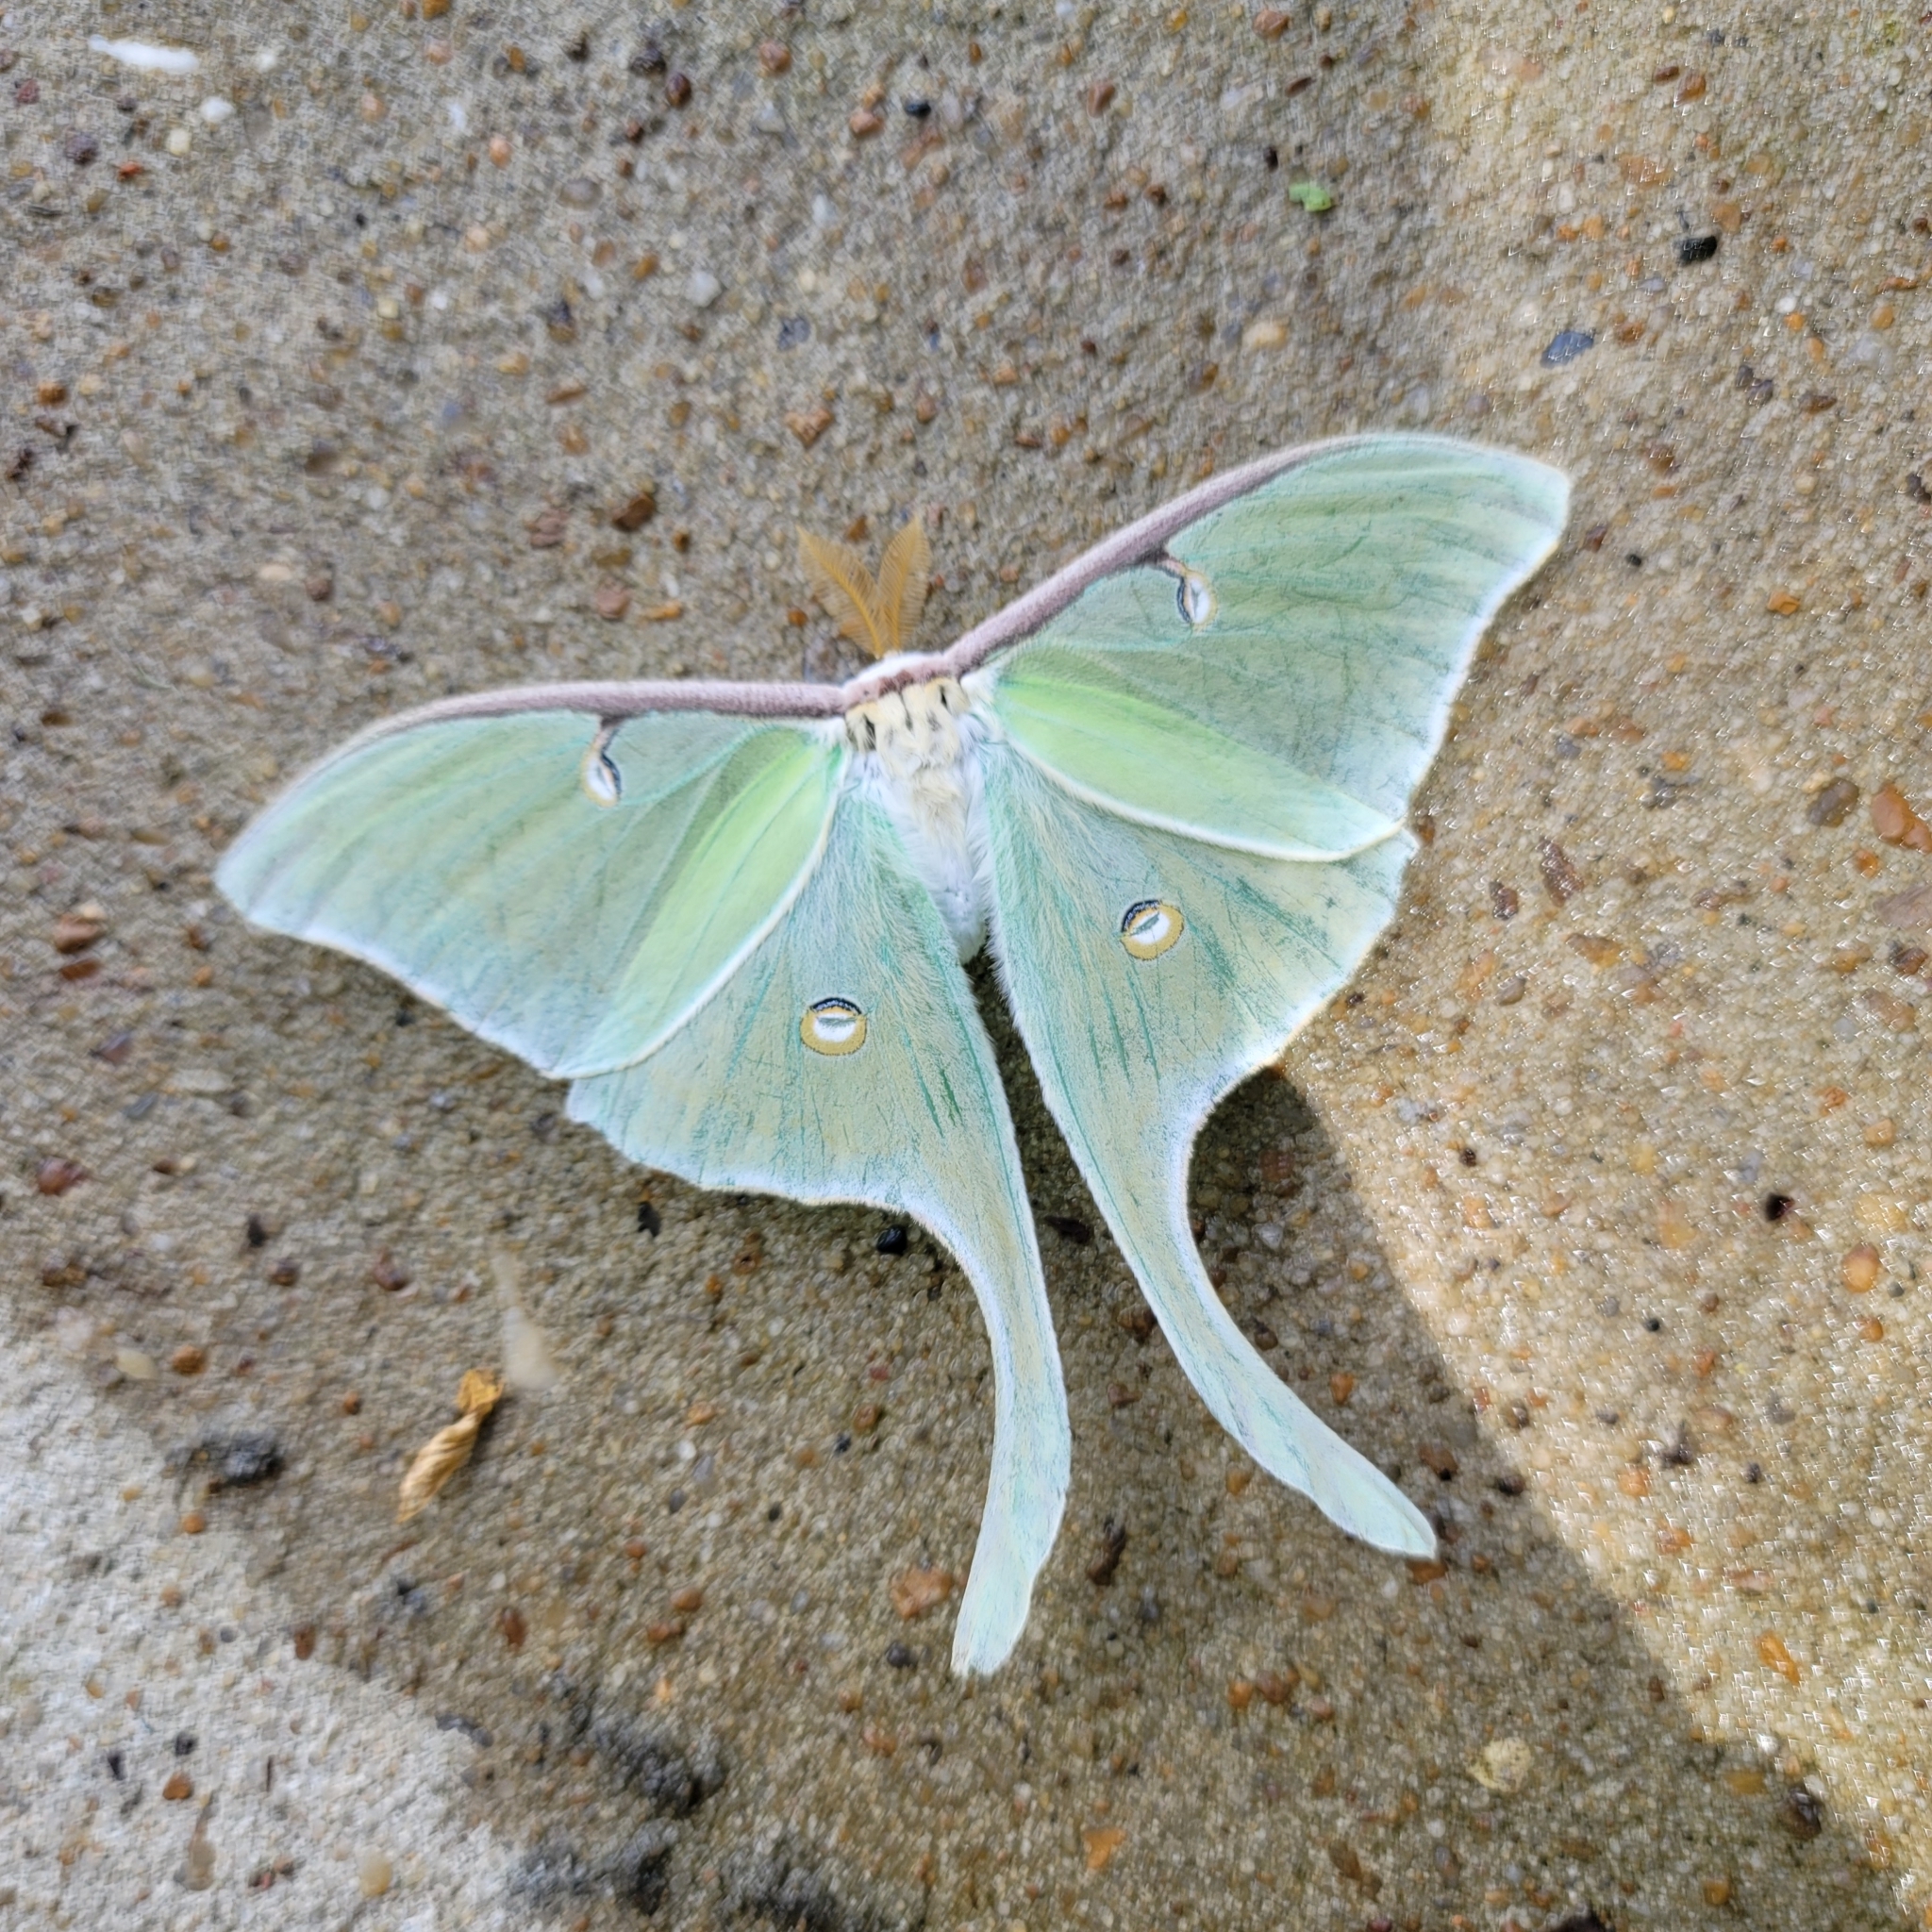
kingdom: Animalia
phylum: Arthropoda
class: Insecta
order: Lepidoptera
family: Saturniidae
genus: Actias
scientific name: Actias luna
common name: Luna moth
